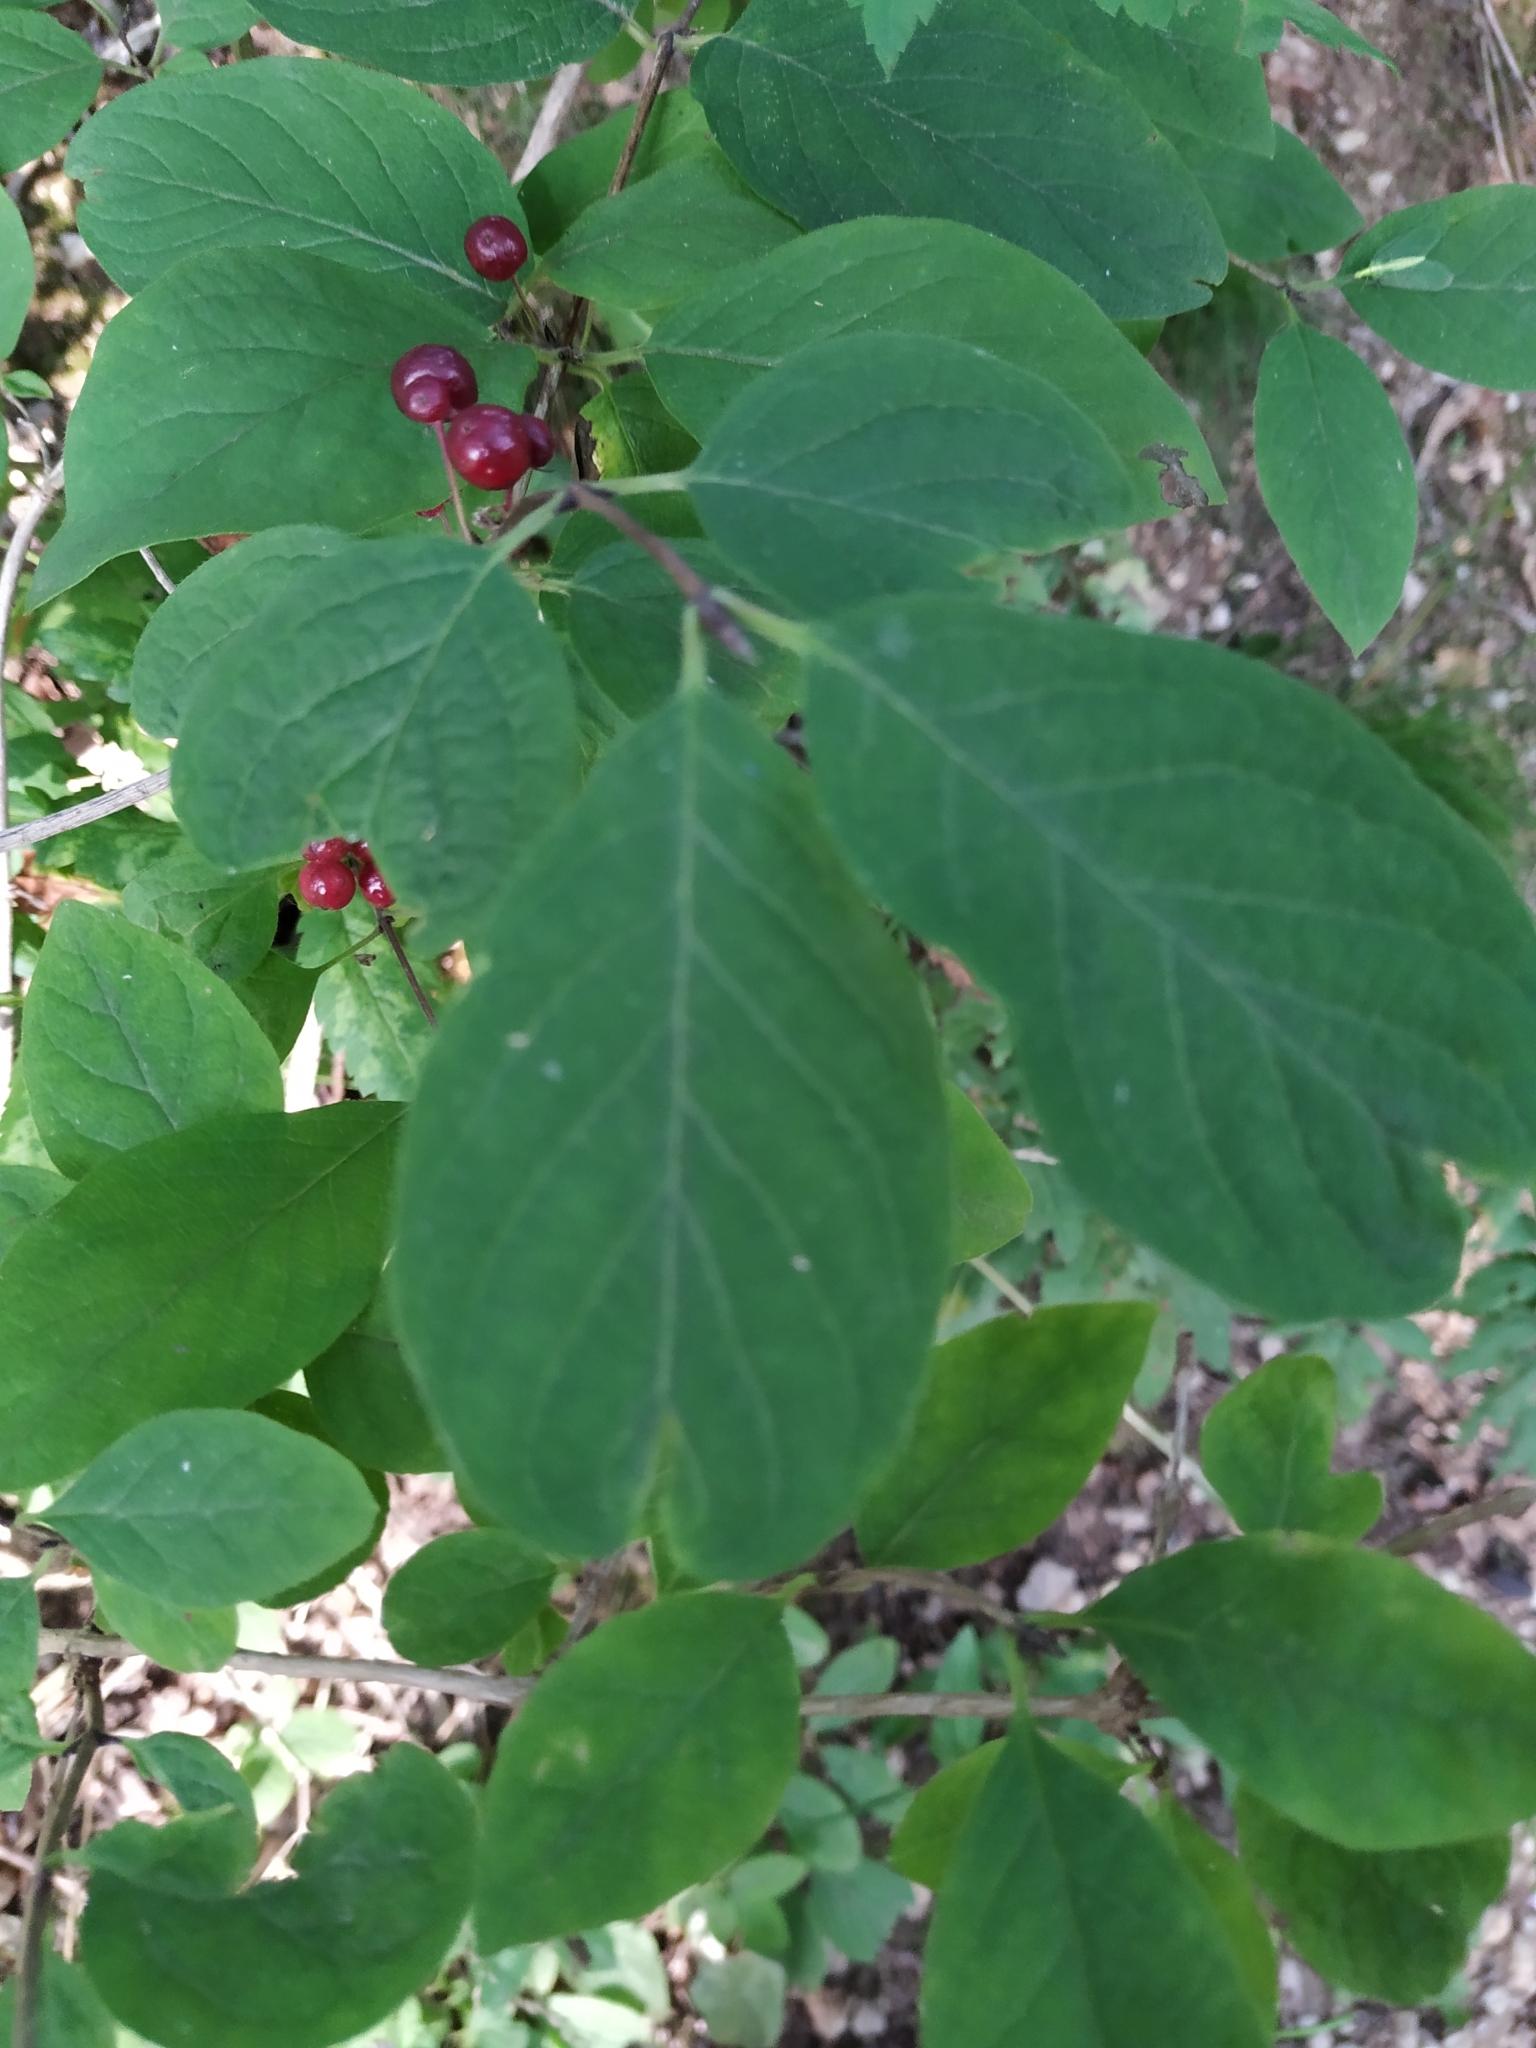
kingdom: Plantae
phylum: Tracheophyta
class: Magnoliopsida
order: Dipsacales
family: Caprifoliaceae
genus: Lonicera
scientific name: Lonicera xylosteum
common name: Fly honeysuckle
